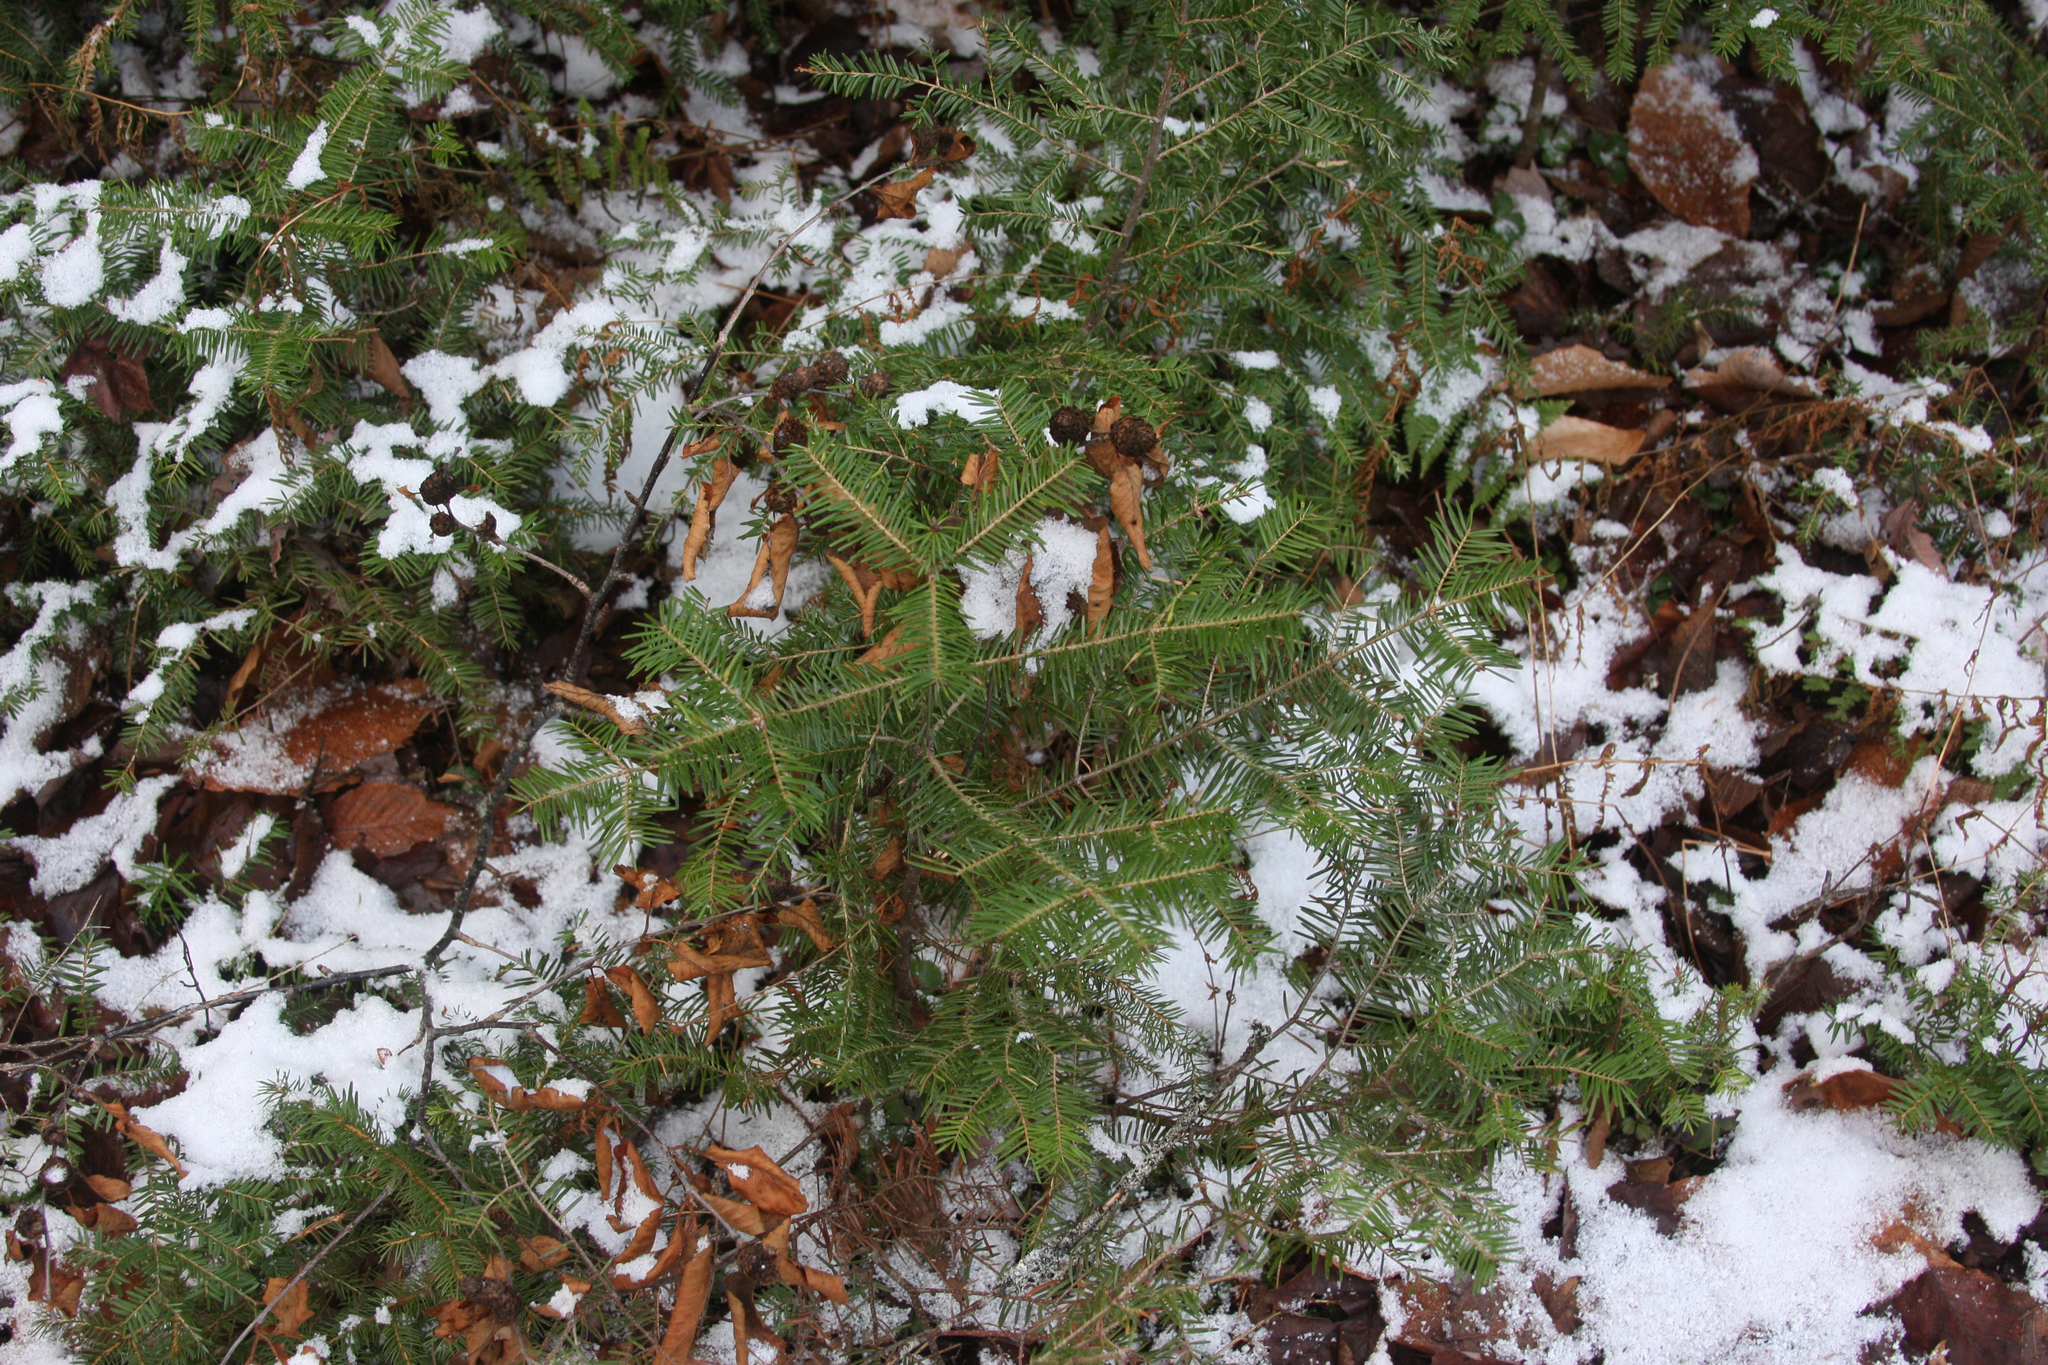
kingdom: Plantae
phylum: Tracheophyta
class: Pinopsida
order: Pinales
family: Pinaceae
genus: Abies
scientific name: Abies balsamea
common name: Balsam fir
